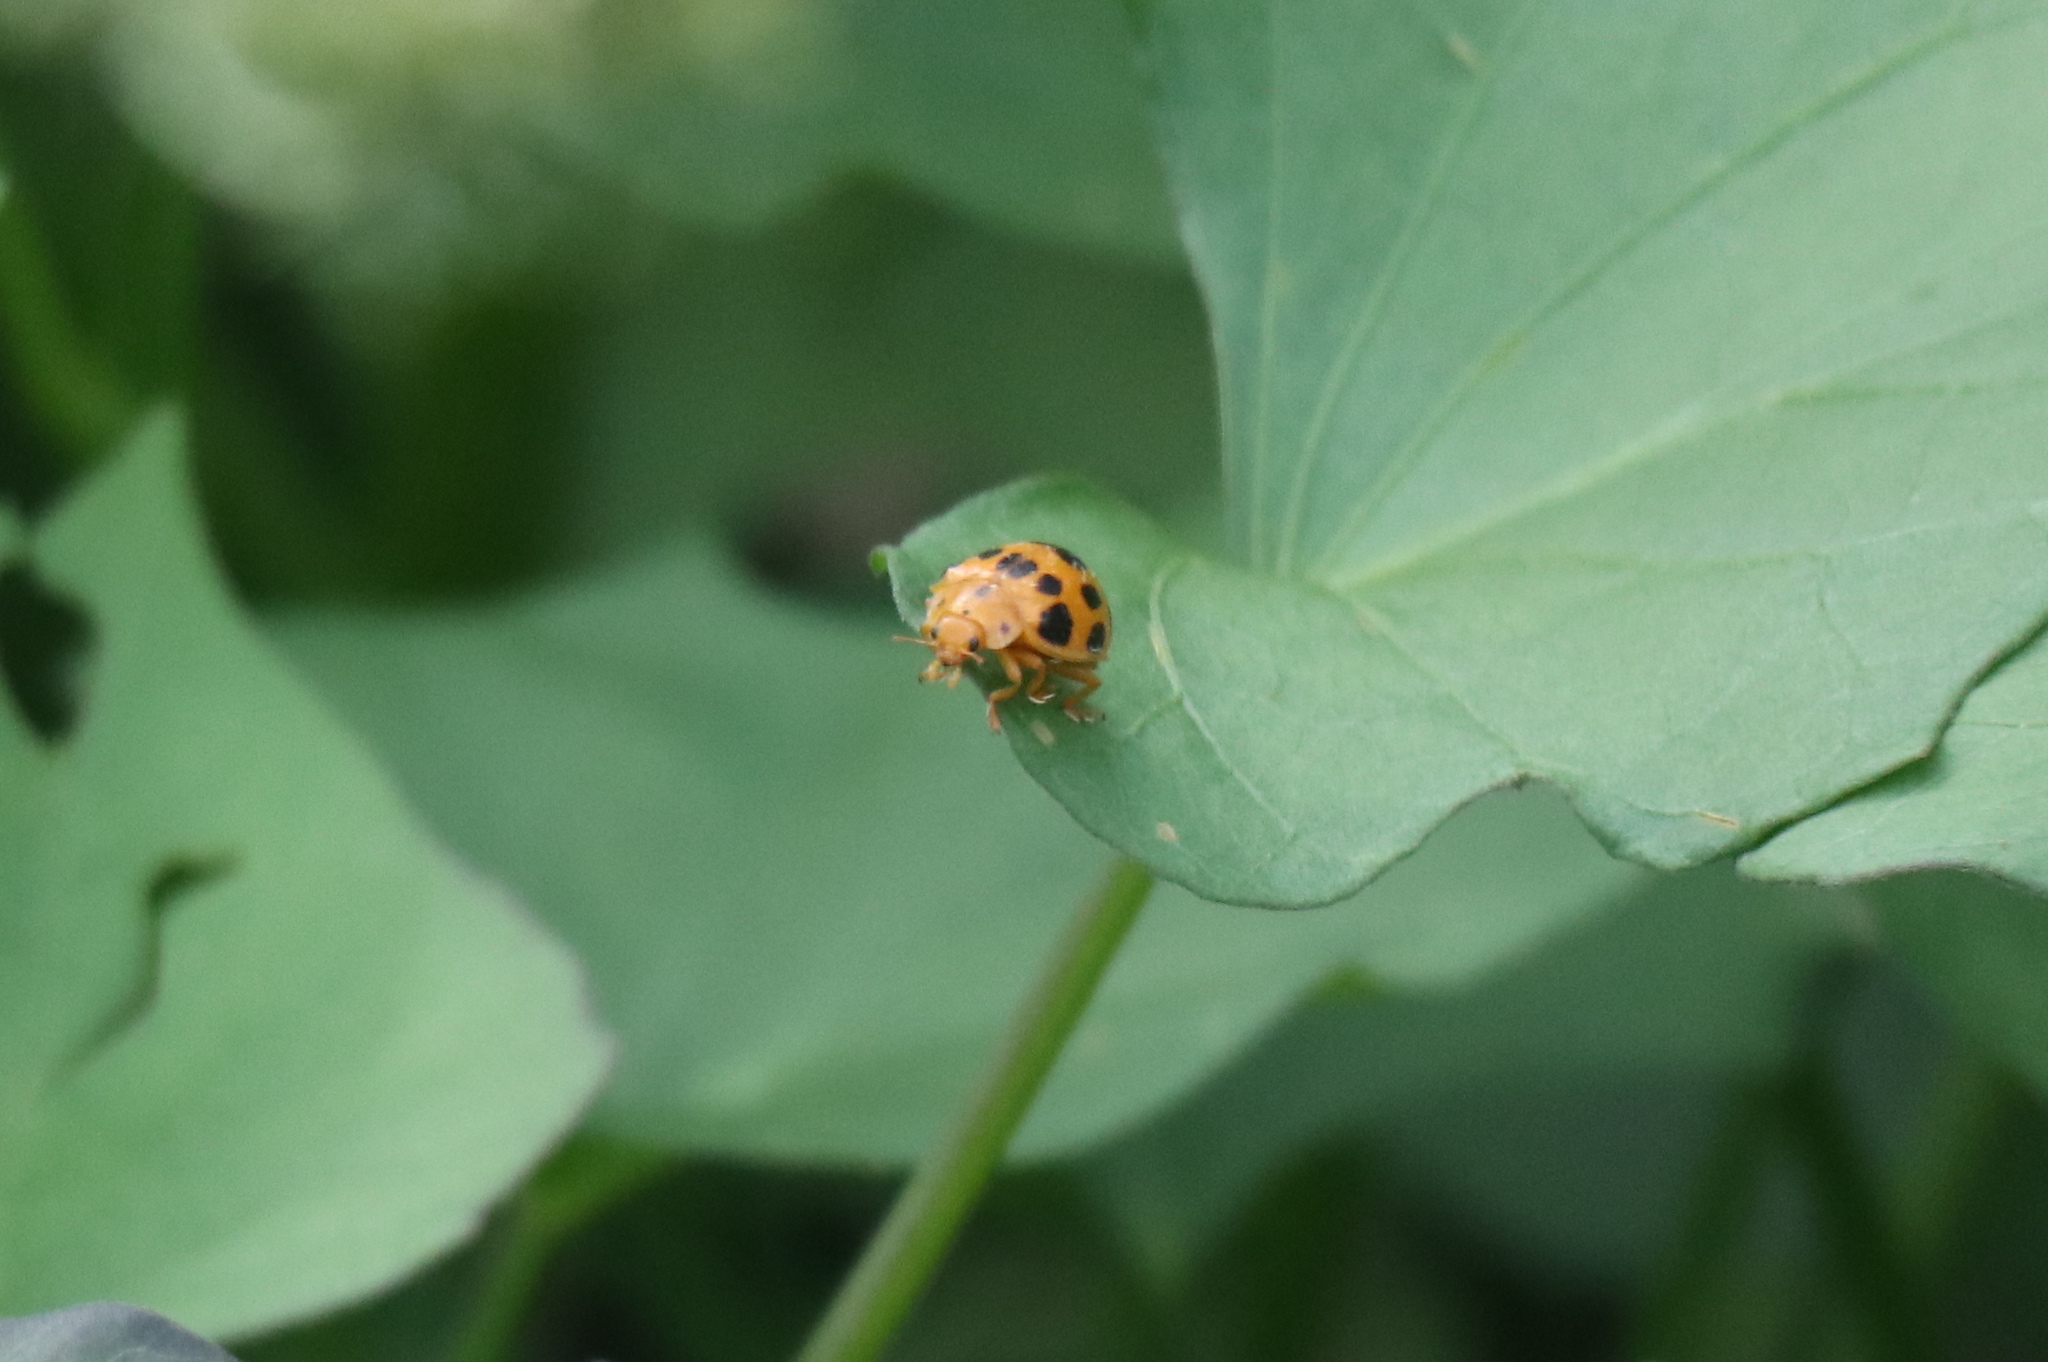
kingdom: Animalia
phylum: Arthropoda
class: Insecta
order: Coleoptera
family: Coccinellidae
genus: Epilachna
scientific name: Epilachna borealis
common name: Squash beetle
